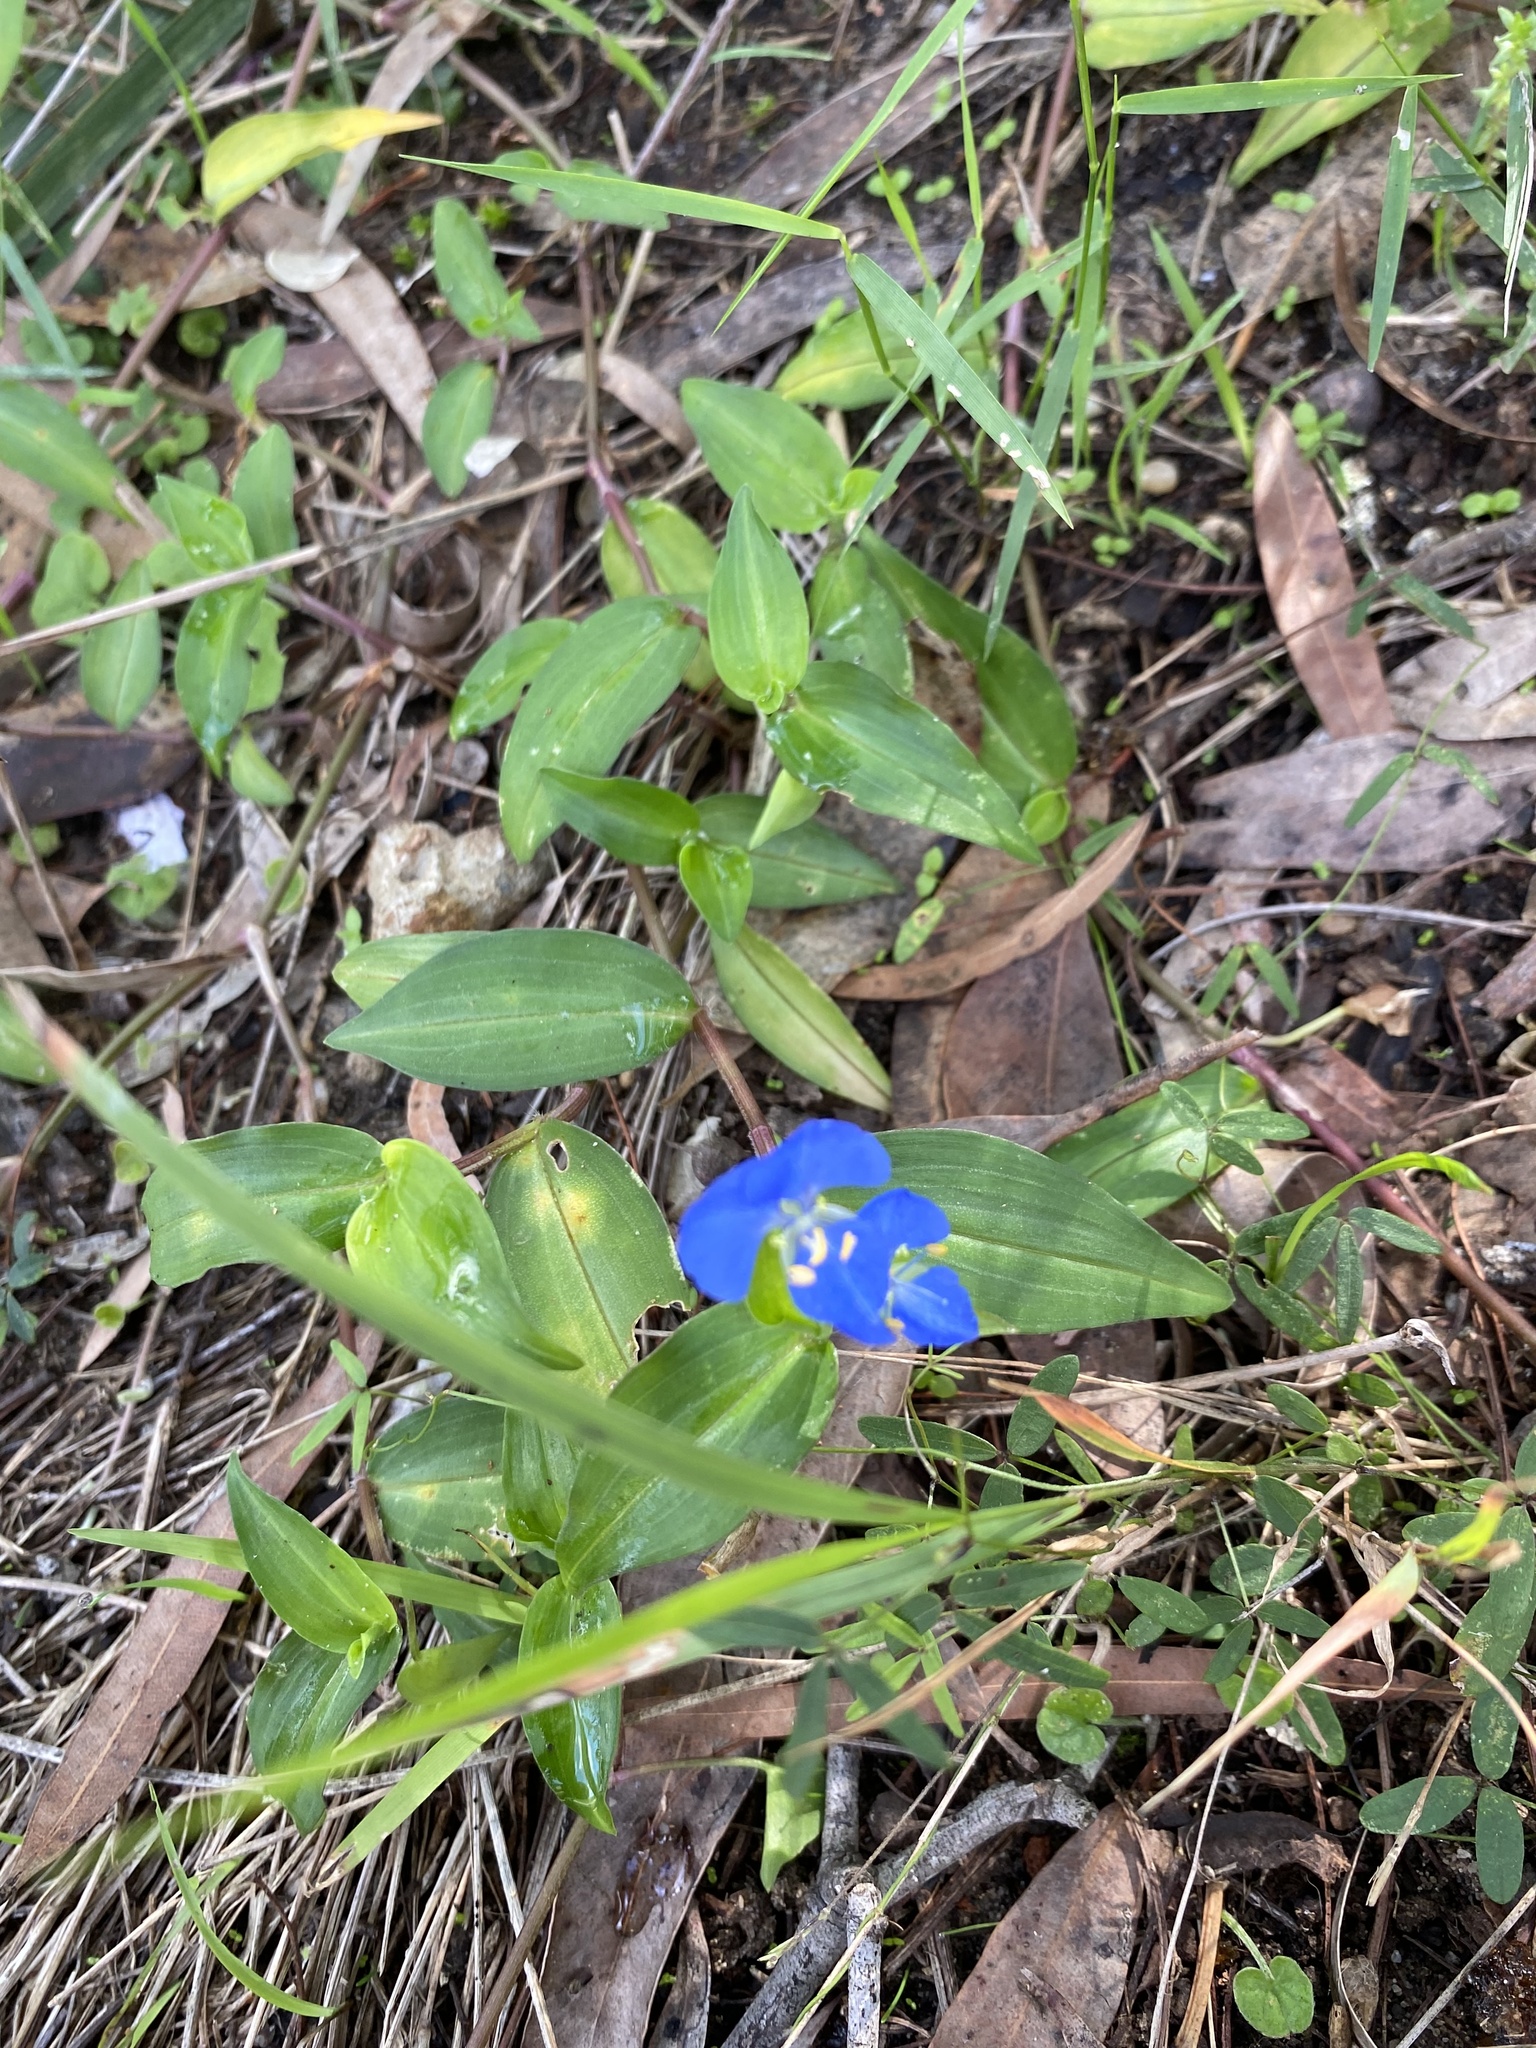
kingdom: Plantae
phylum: Tracheophyta
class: Liliopsida
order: Commelinales
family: Commelinaceae
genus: Commelina
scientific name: Commelina cyanea
